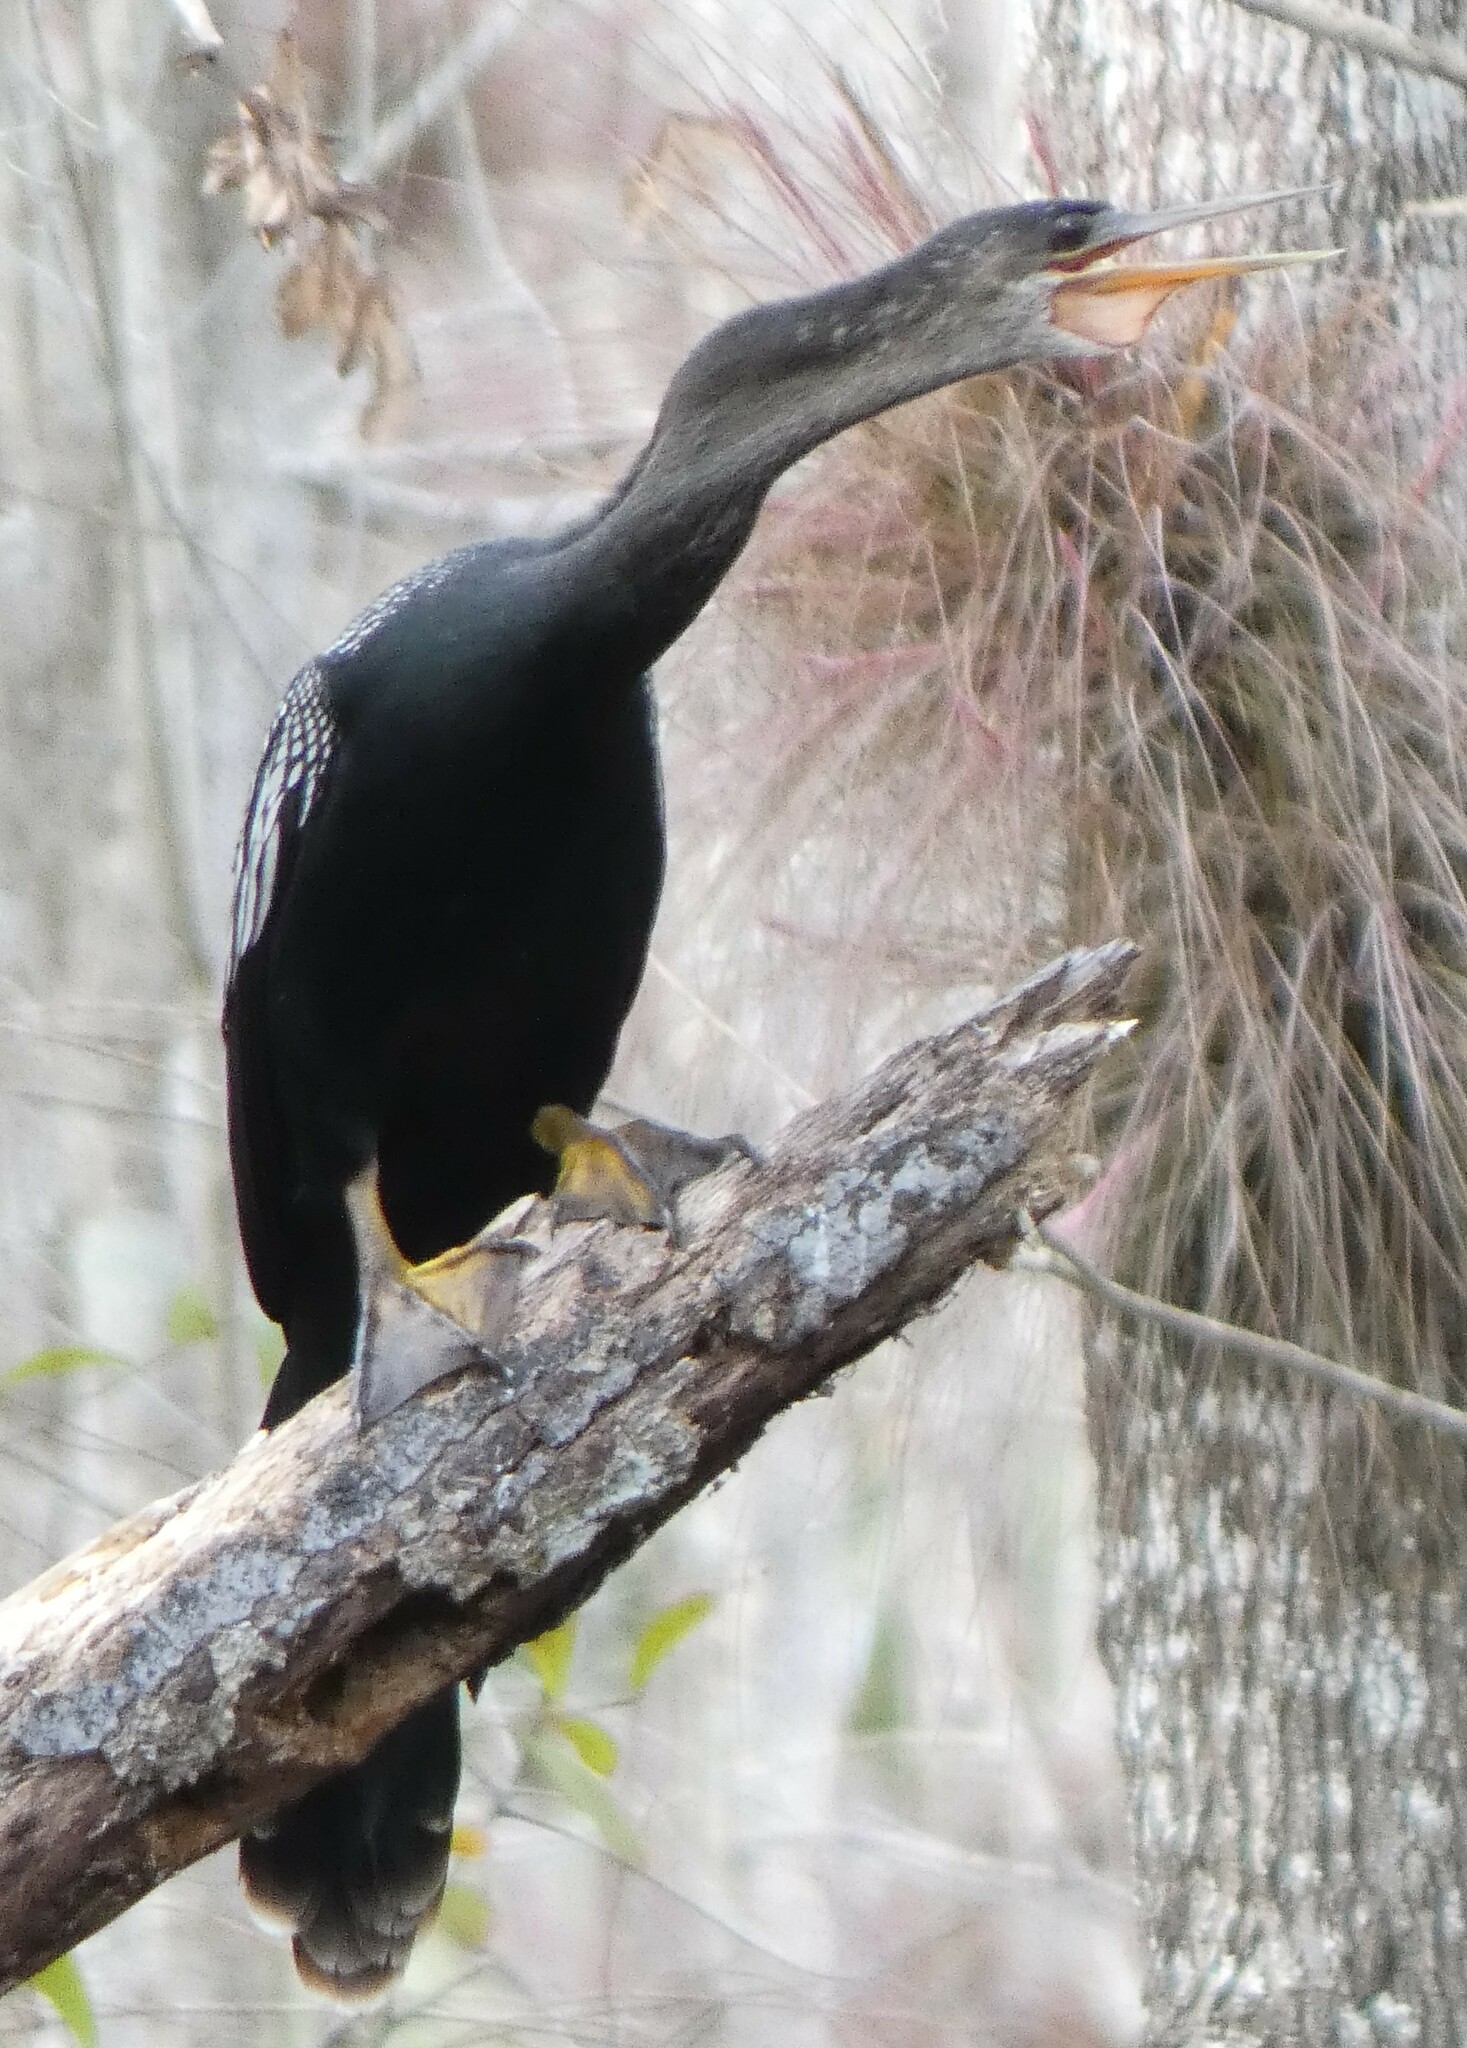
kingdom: Animalia
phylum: Chordata
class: Aves
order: Suliformes
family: Anhingidae
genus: Anhinga
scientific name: Anhinga anhinga
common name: Anhinga
